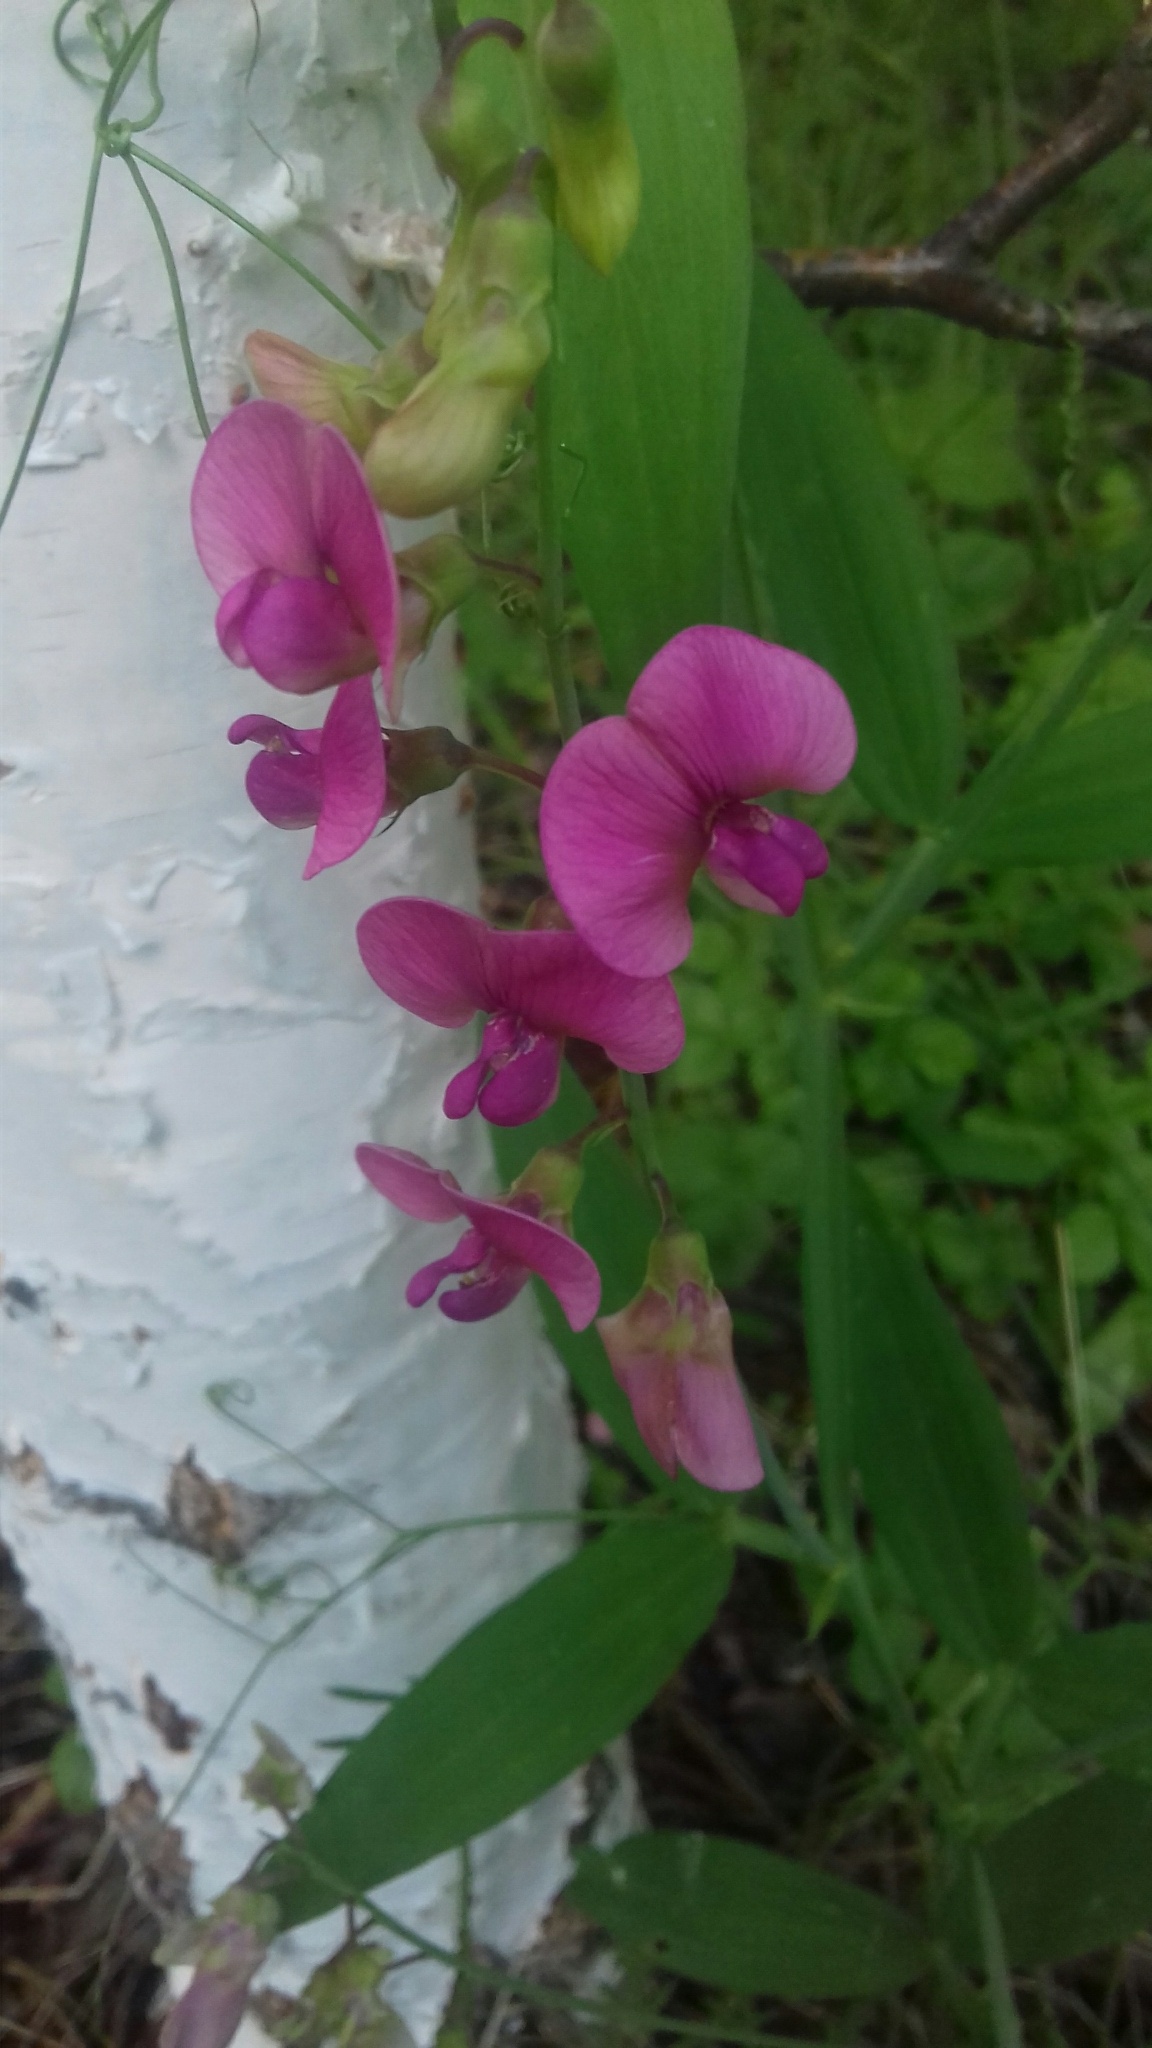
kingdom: Plantae
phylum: Tracheophyta
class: Magnoliopsida
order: Fabales
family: Fabaceae
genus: Lathyrus
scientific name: Lathyrus sylvestris
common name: Flat pea
